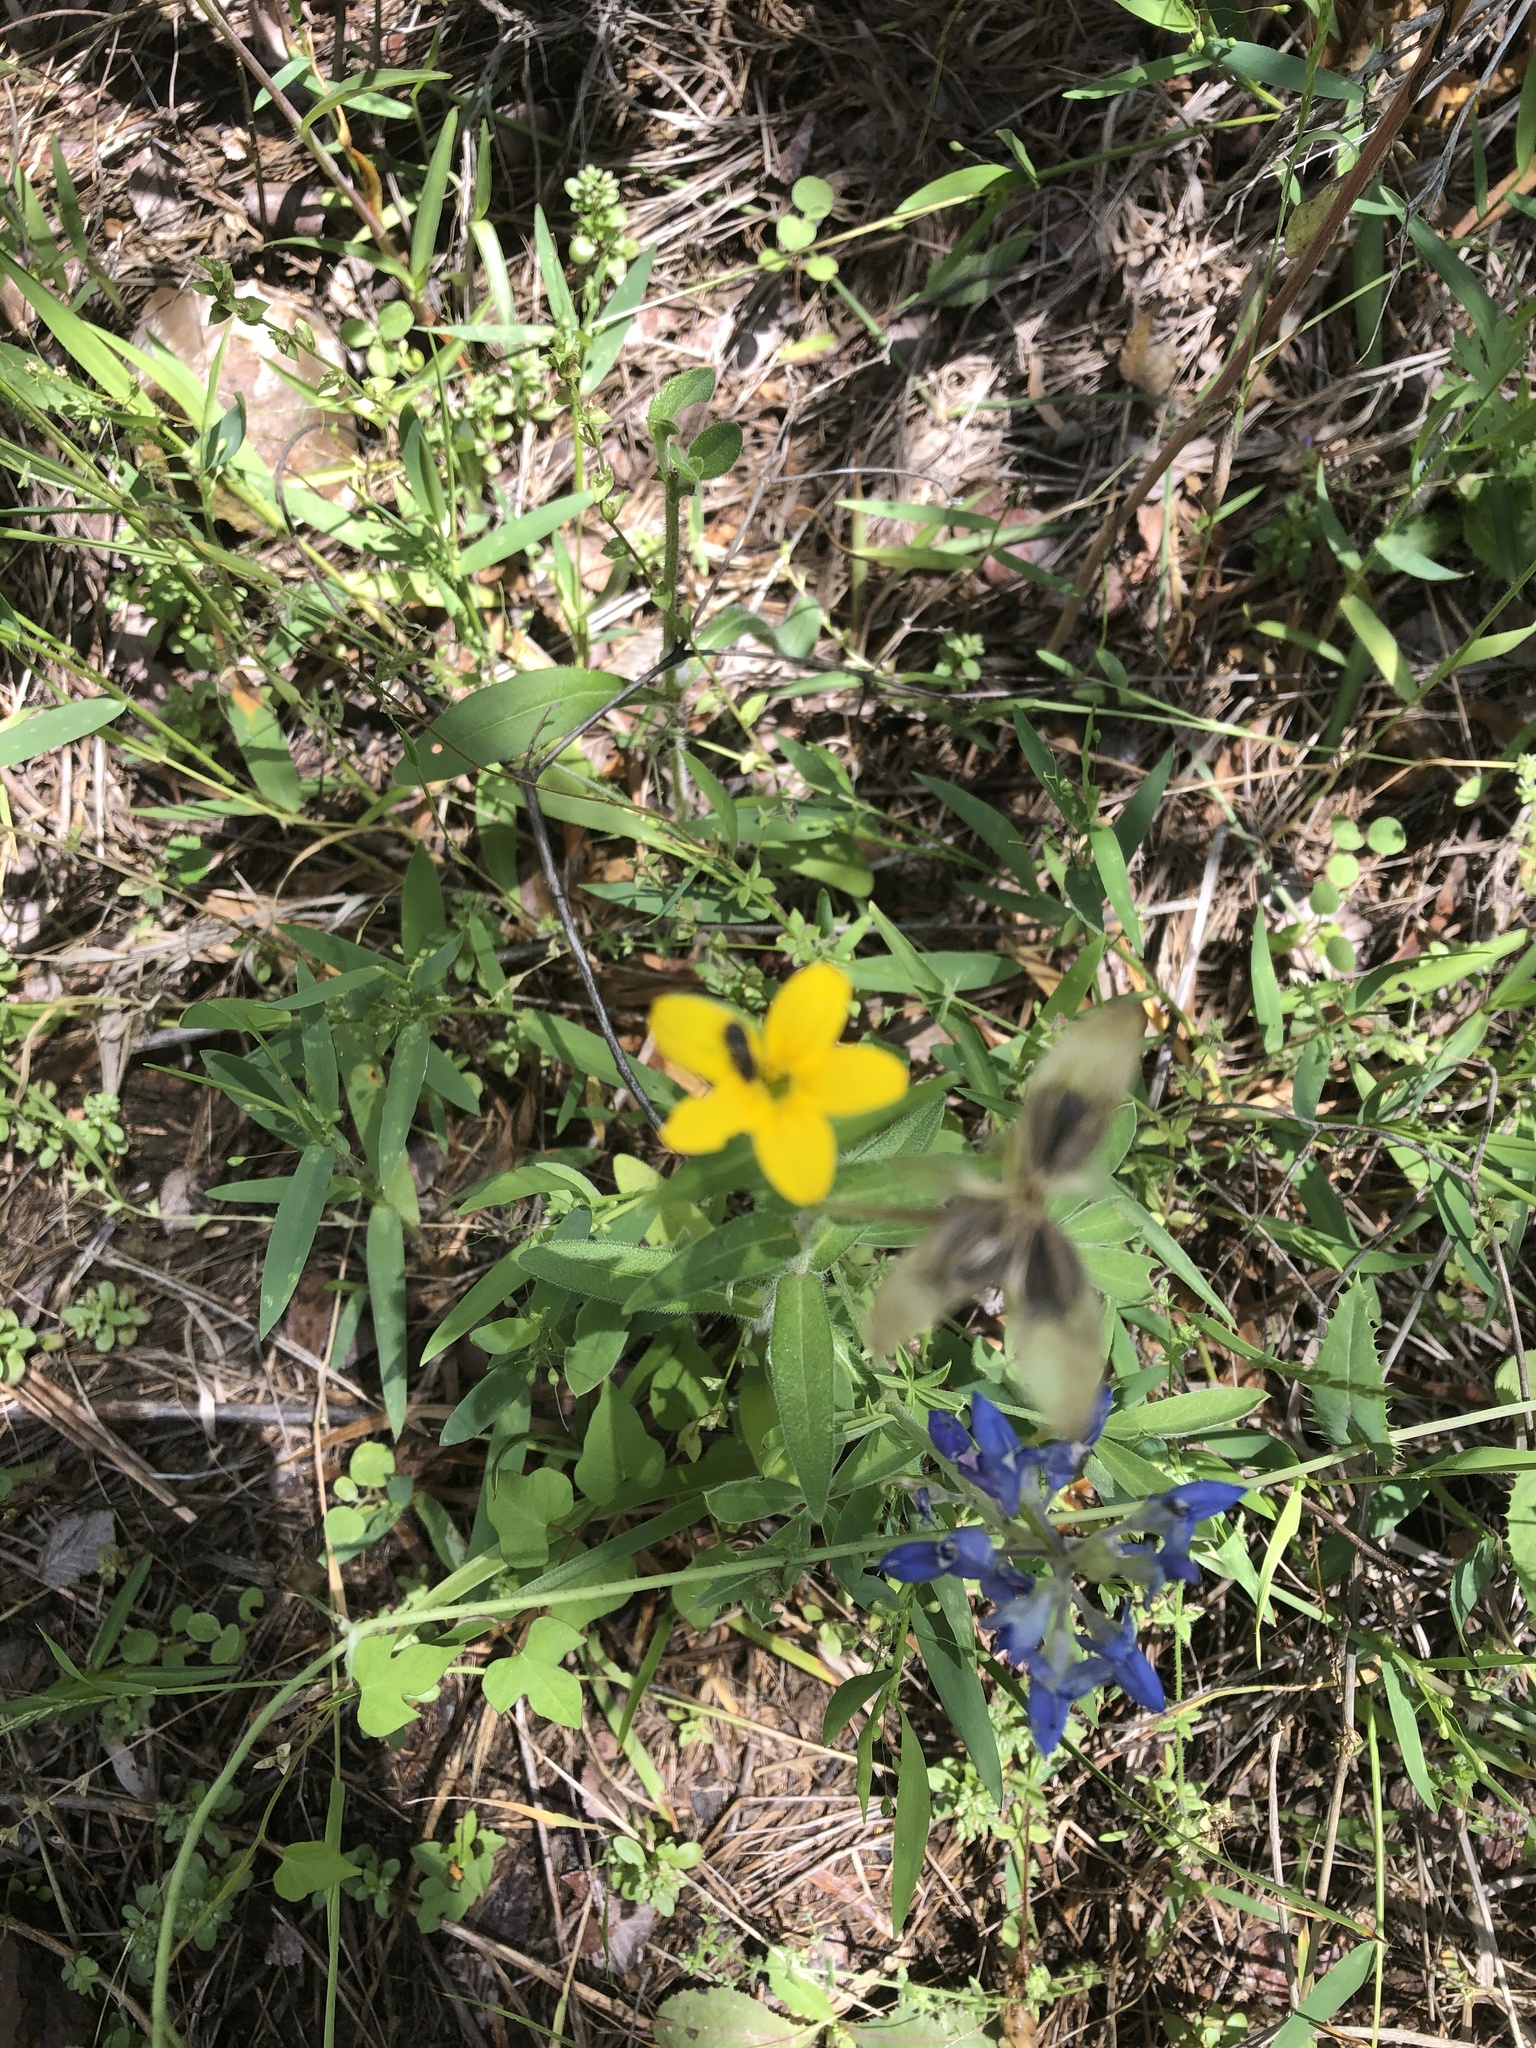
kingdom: Plantae
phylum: Tracheophyta
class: Magnoliopsida
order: Asterales
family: Asteraceae
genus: Lindheimera
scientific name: Lindheimera texana
